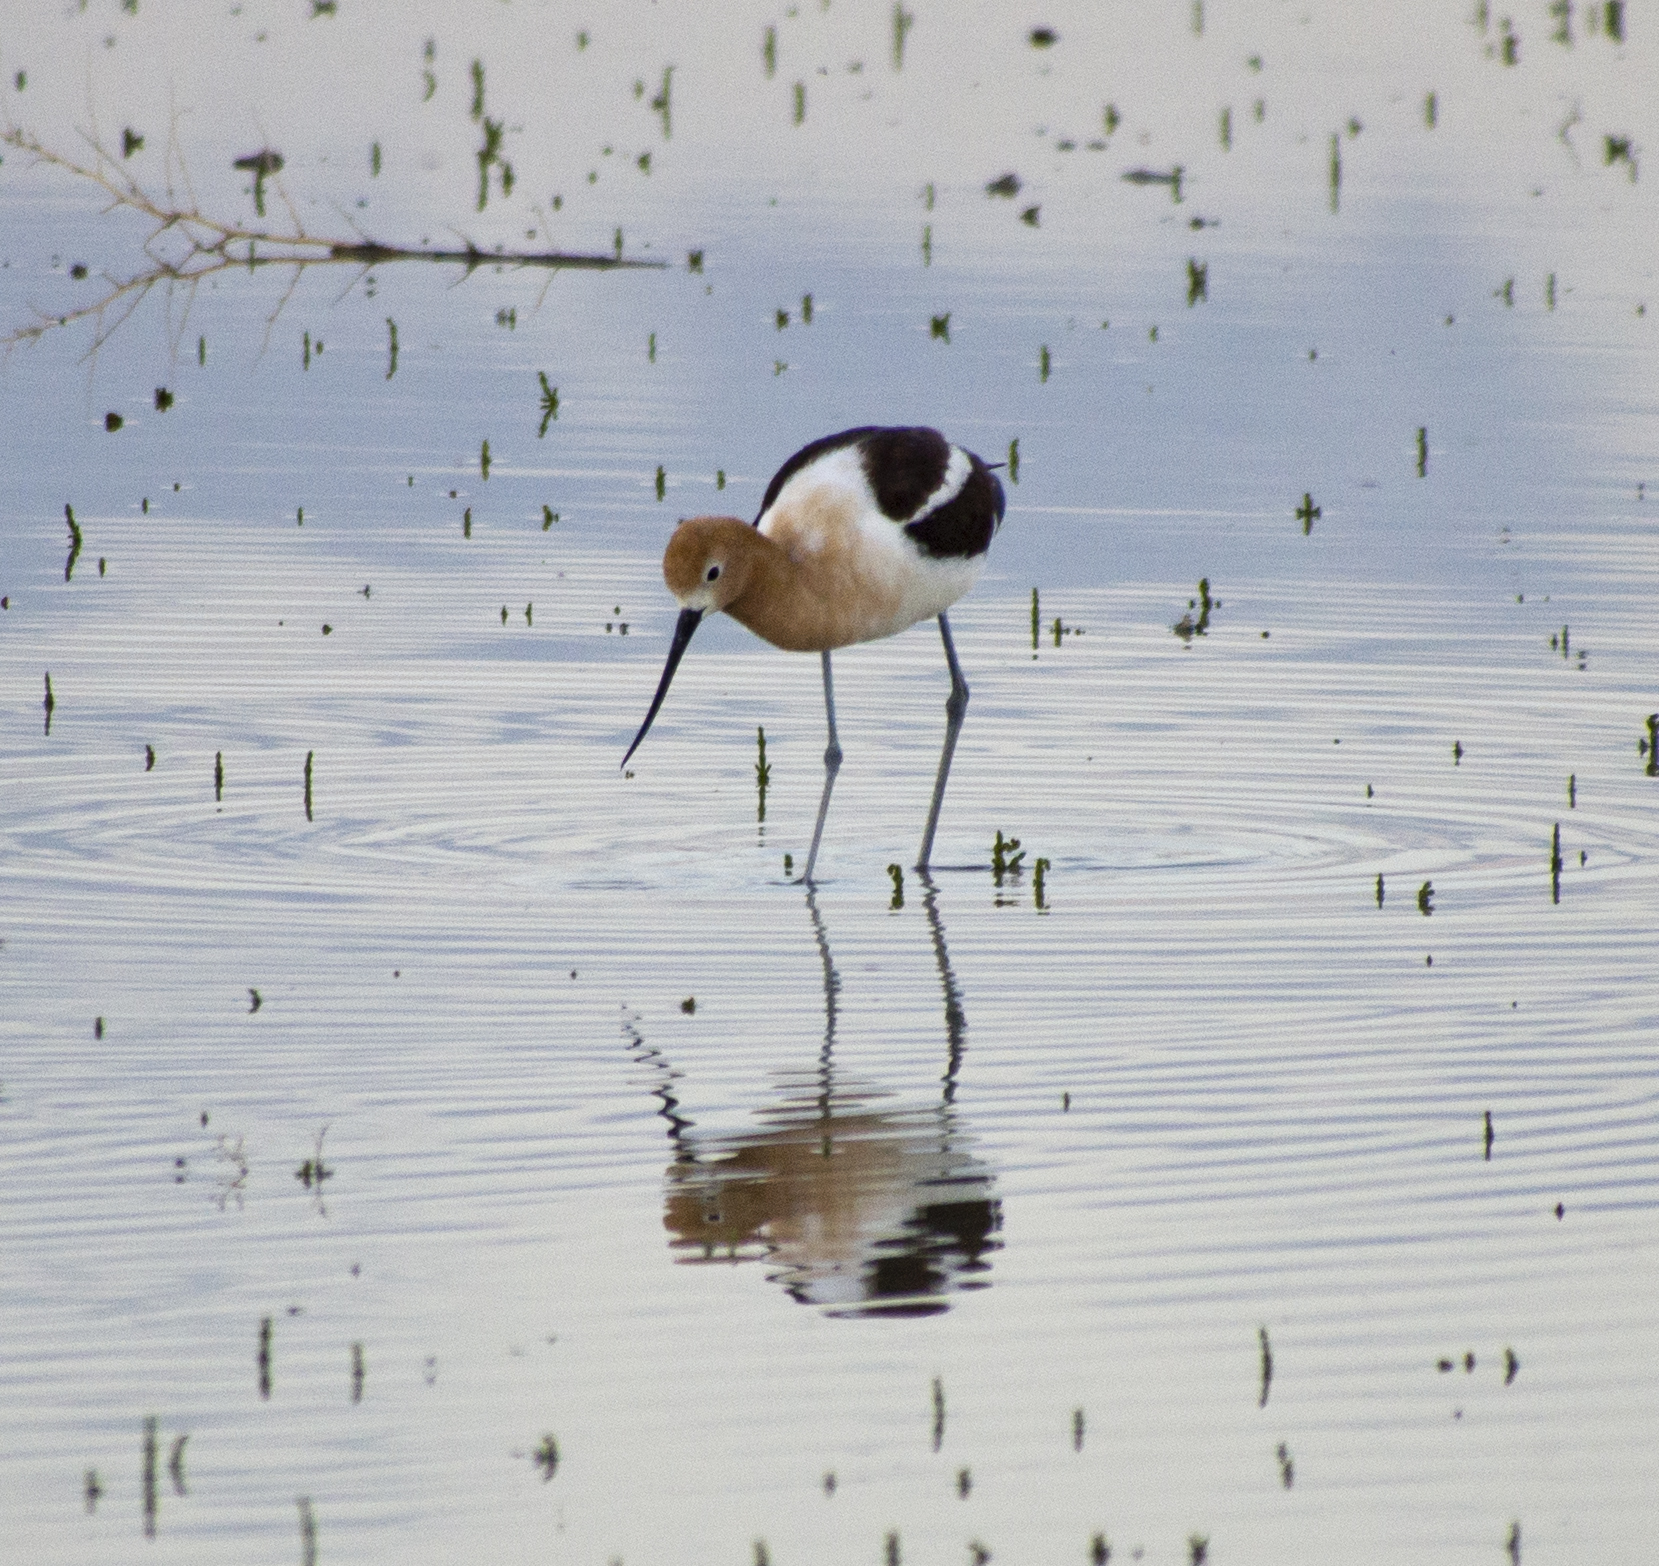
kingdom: Animalia
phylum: Chordata
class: Aves
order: Charadriiformes
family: Recurvirostridae
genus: Recurvirostra
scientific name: Recurvirostra americana
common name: American avocet
